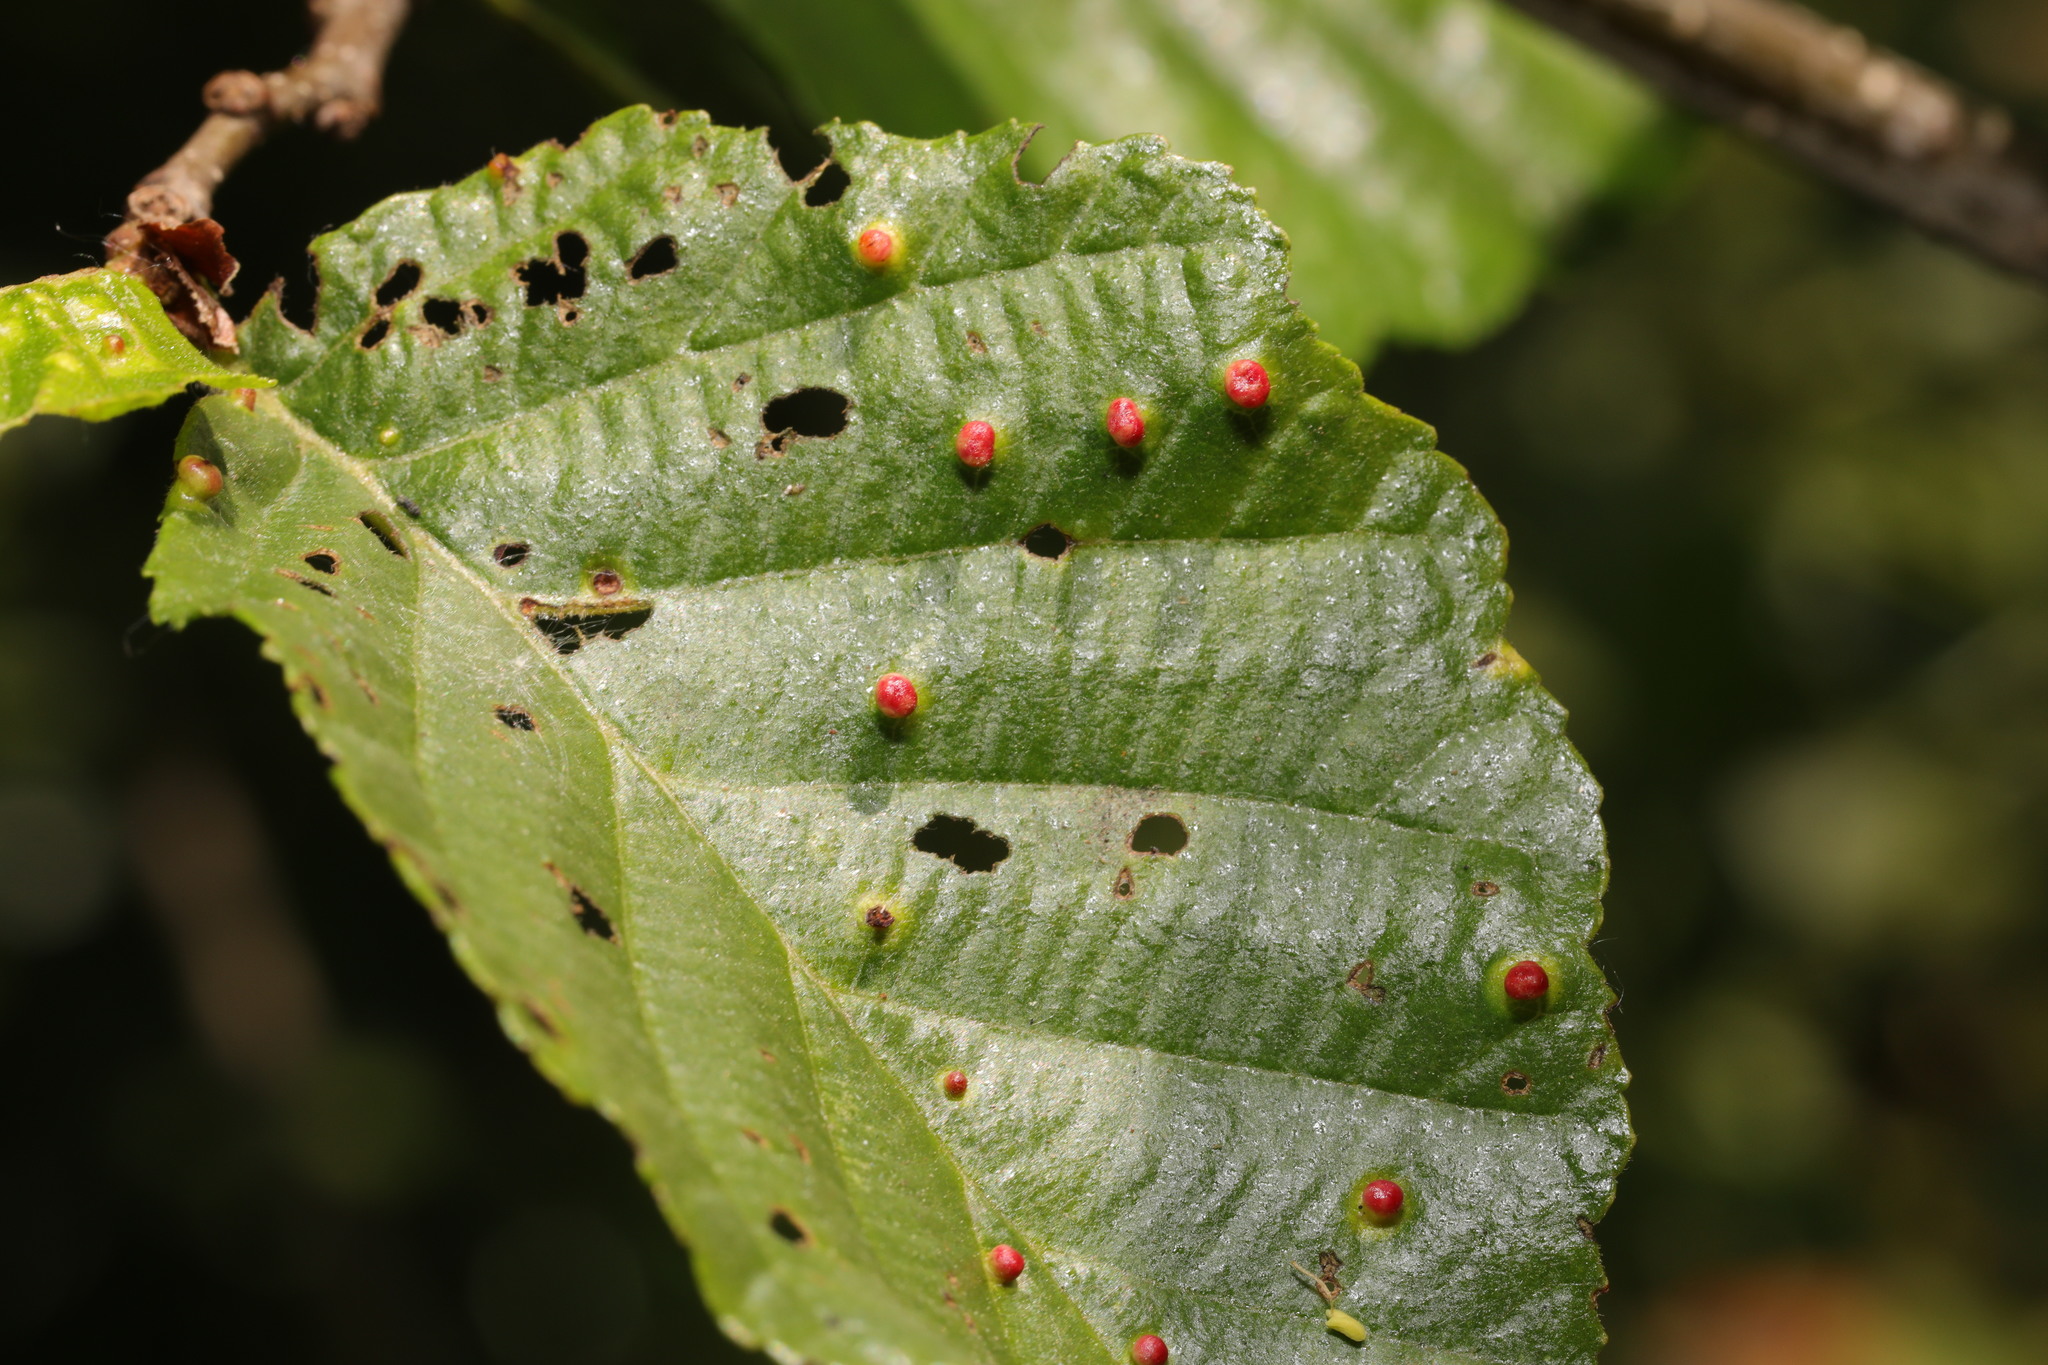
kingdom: Animalia
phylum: Arthropoda
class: Arachnida
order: Trombidiformes
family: Eriophyidae
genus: Eriophyes
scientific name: Eriophyes laevis
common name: Alder leaf gall mite
